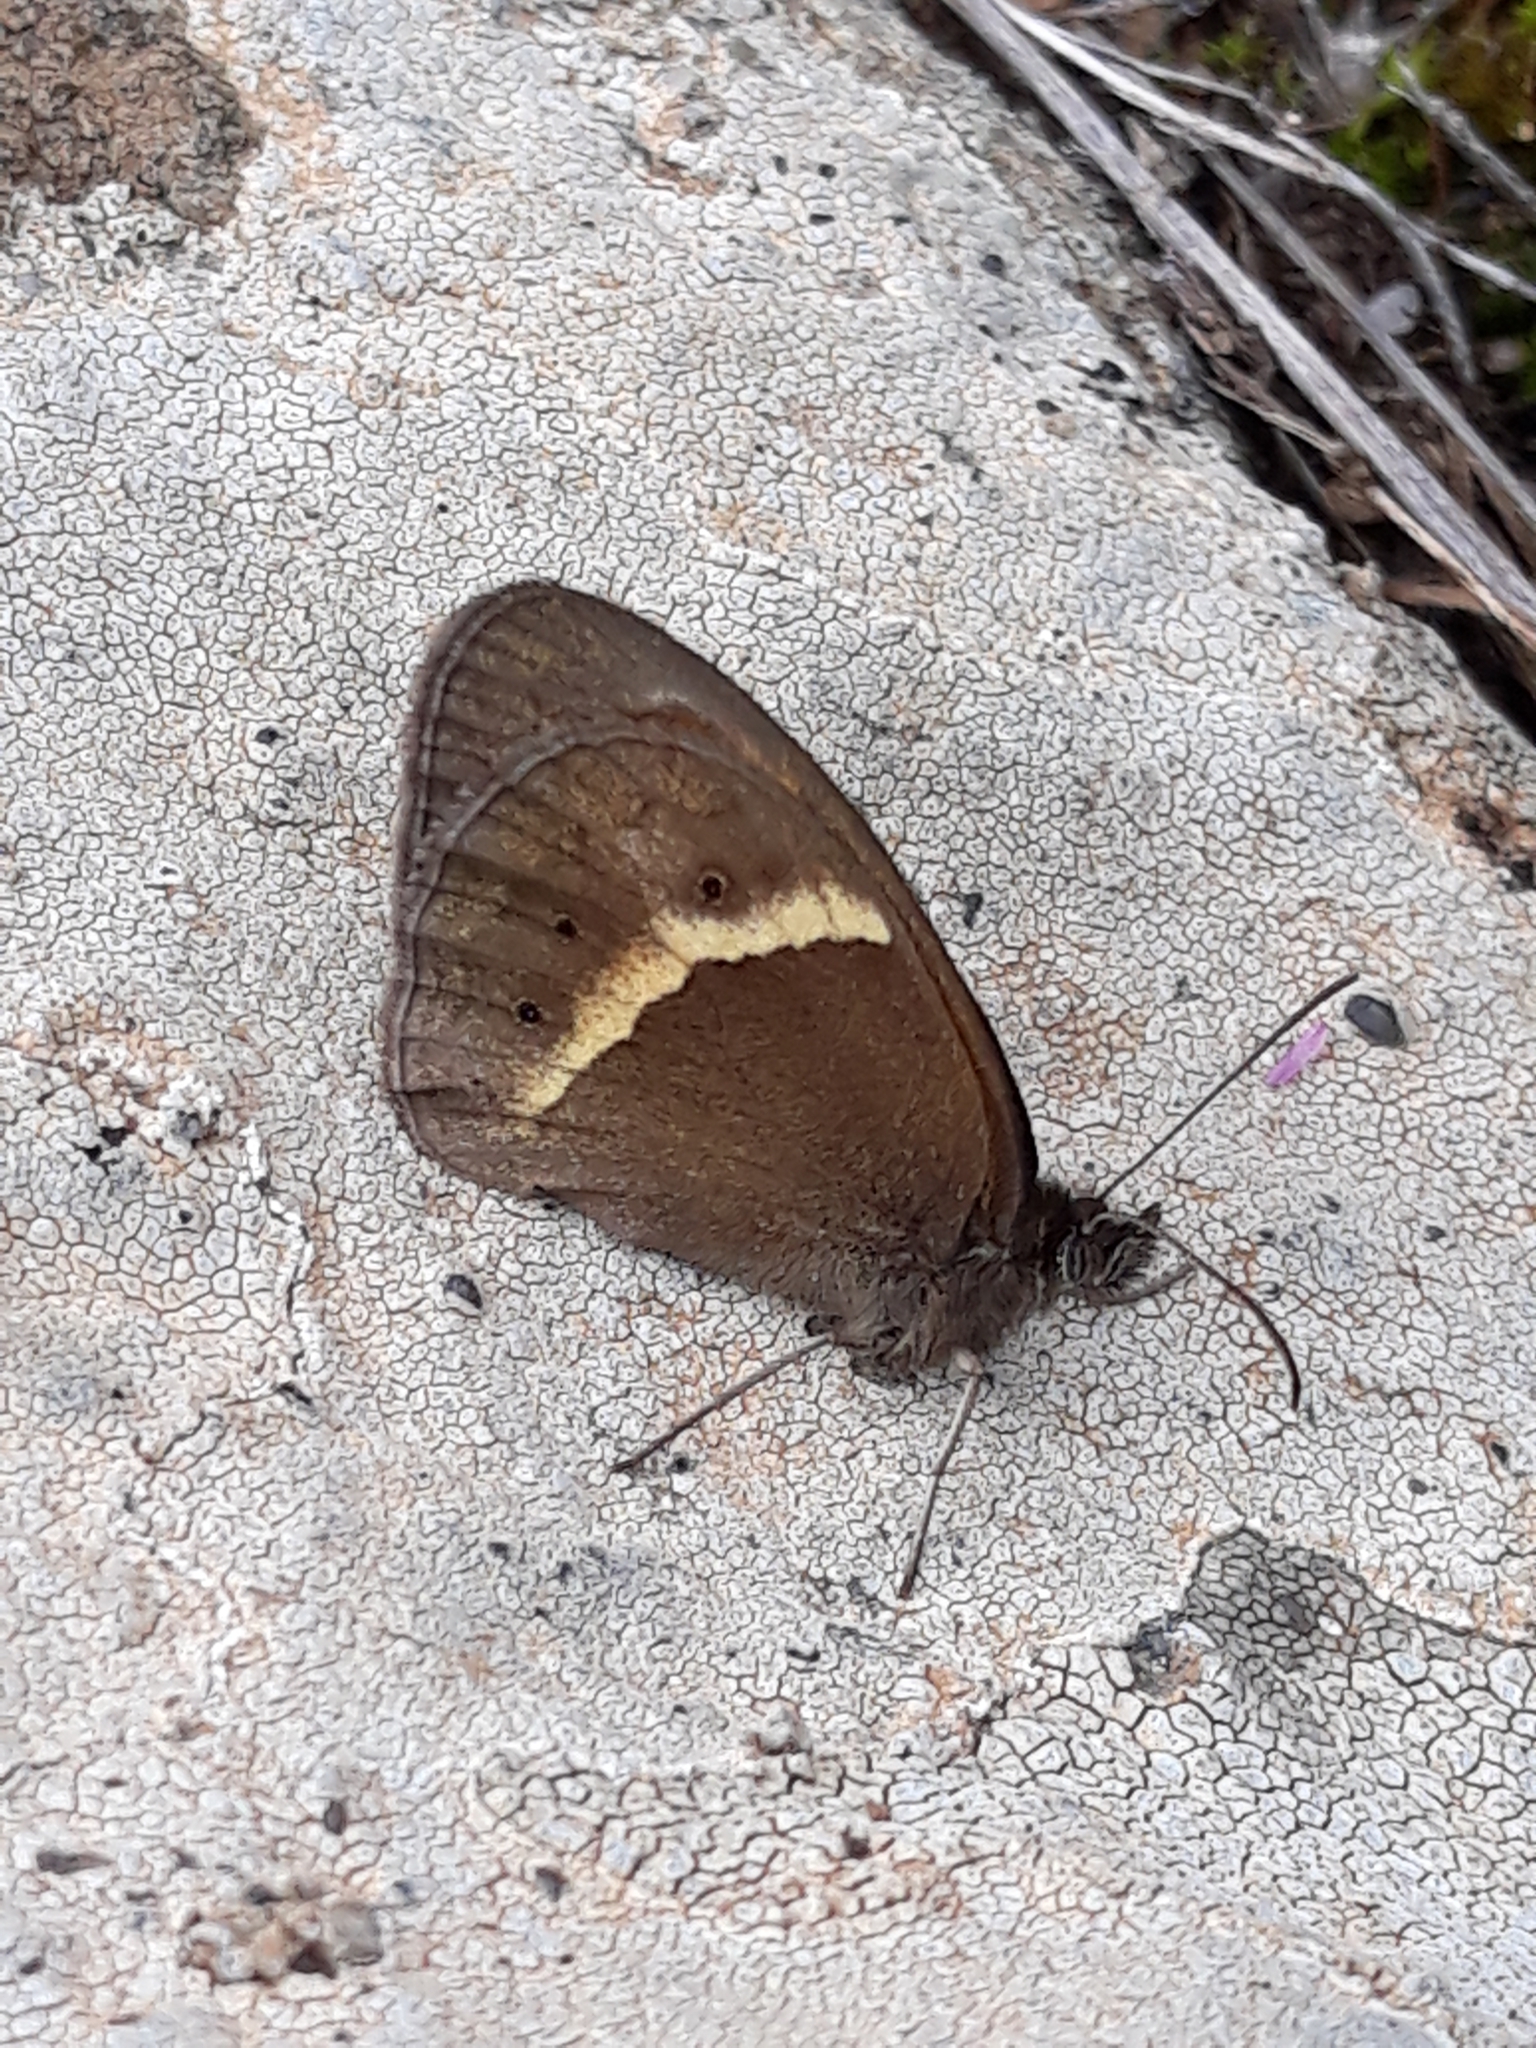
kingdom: Animalia
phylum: Arthropoda
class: Insecta
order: Lepidoptera
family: Nymphalidae
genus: Pyronia
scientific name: Pyronia bathseba
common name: Spanish gatekeeper
